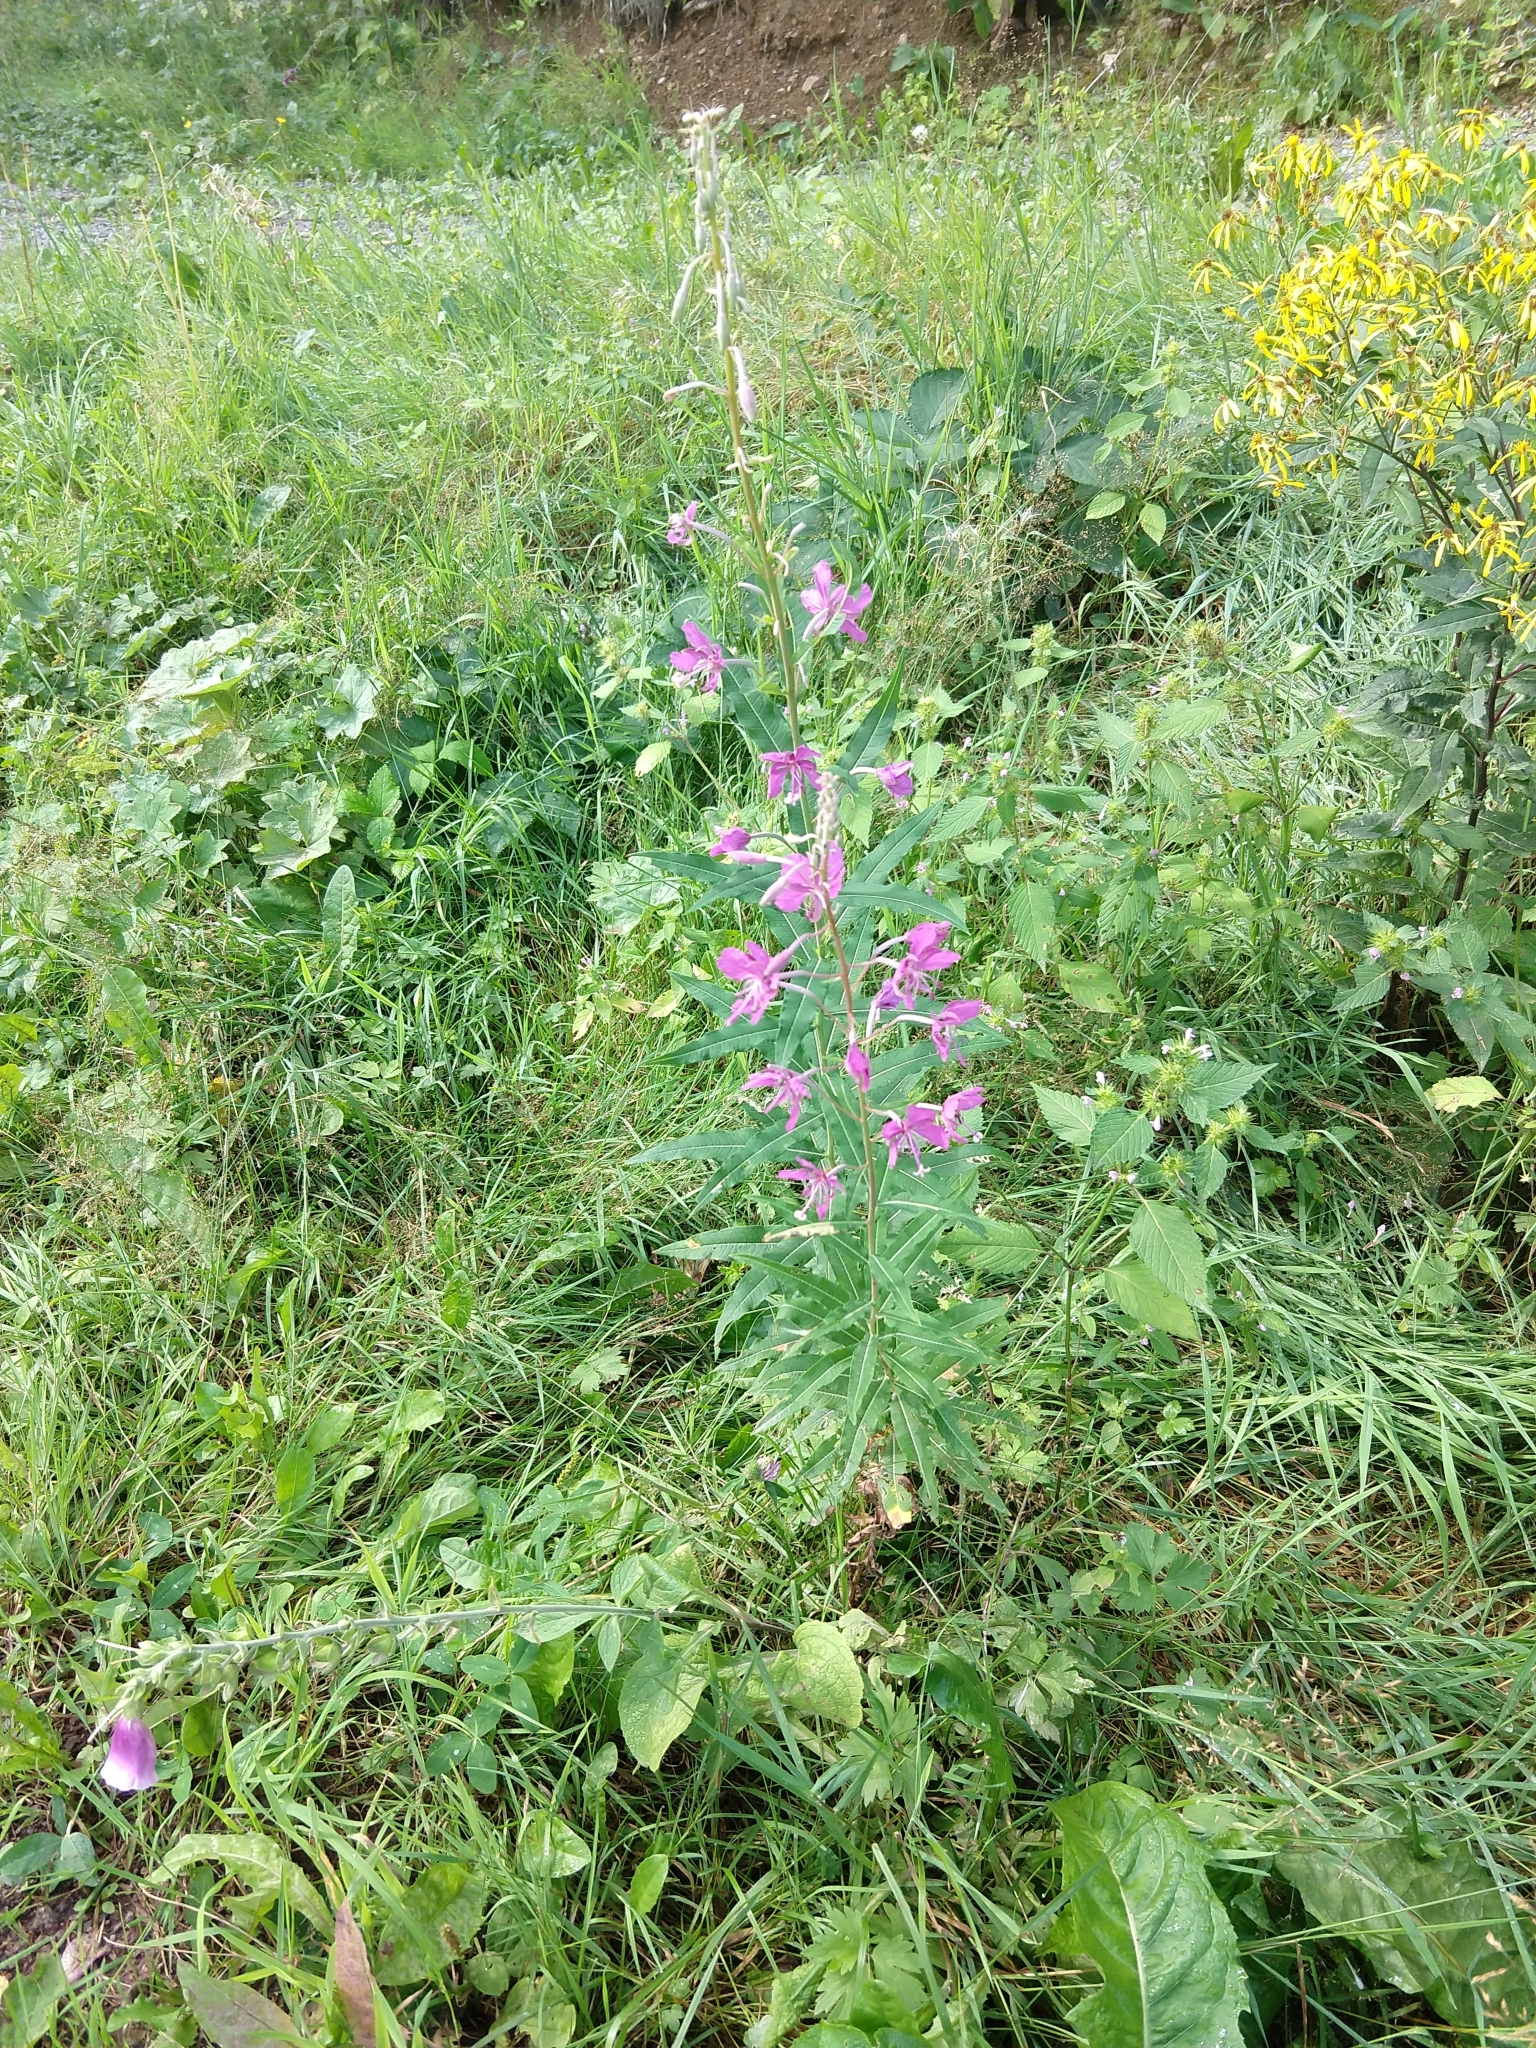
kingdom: Plantae
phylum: Tracheophyta
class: Magnoliopsida
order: Myrtales
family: Onagraceae
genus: Chamaenerion
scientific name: Chamaenerion angustifolium
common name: Fireweed
